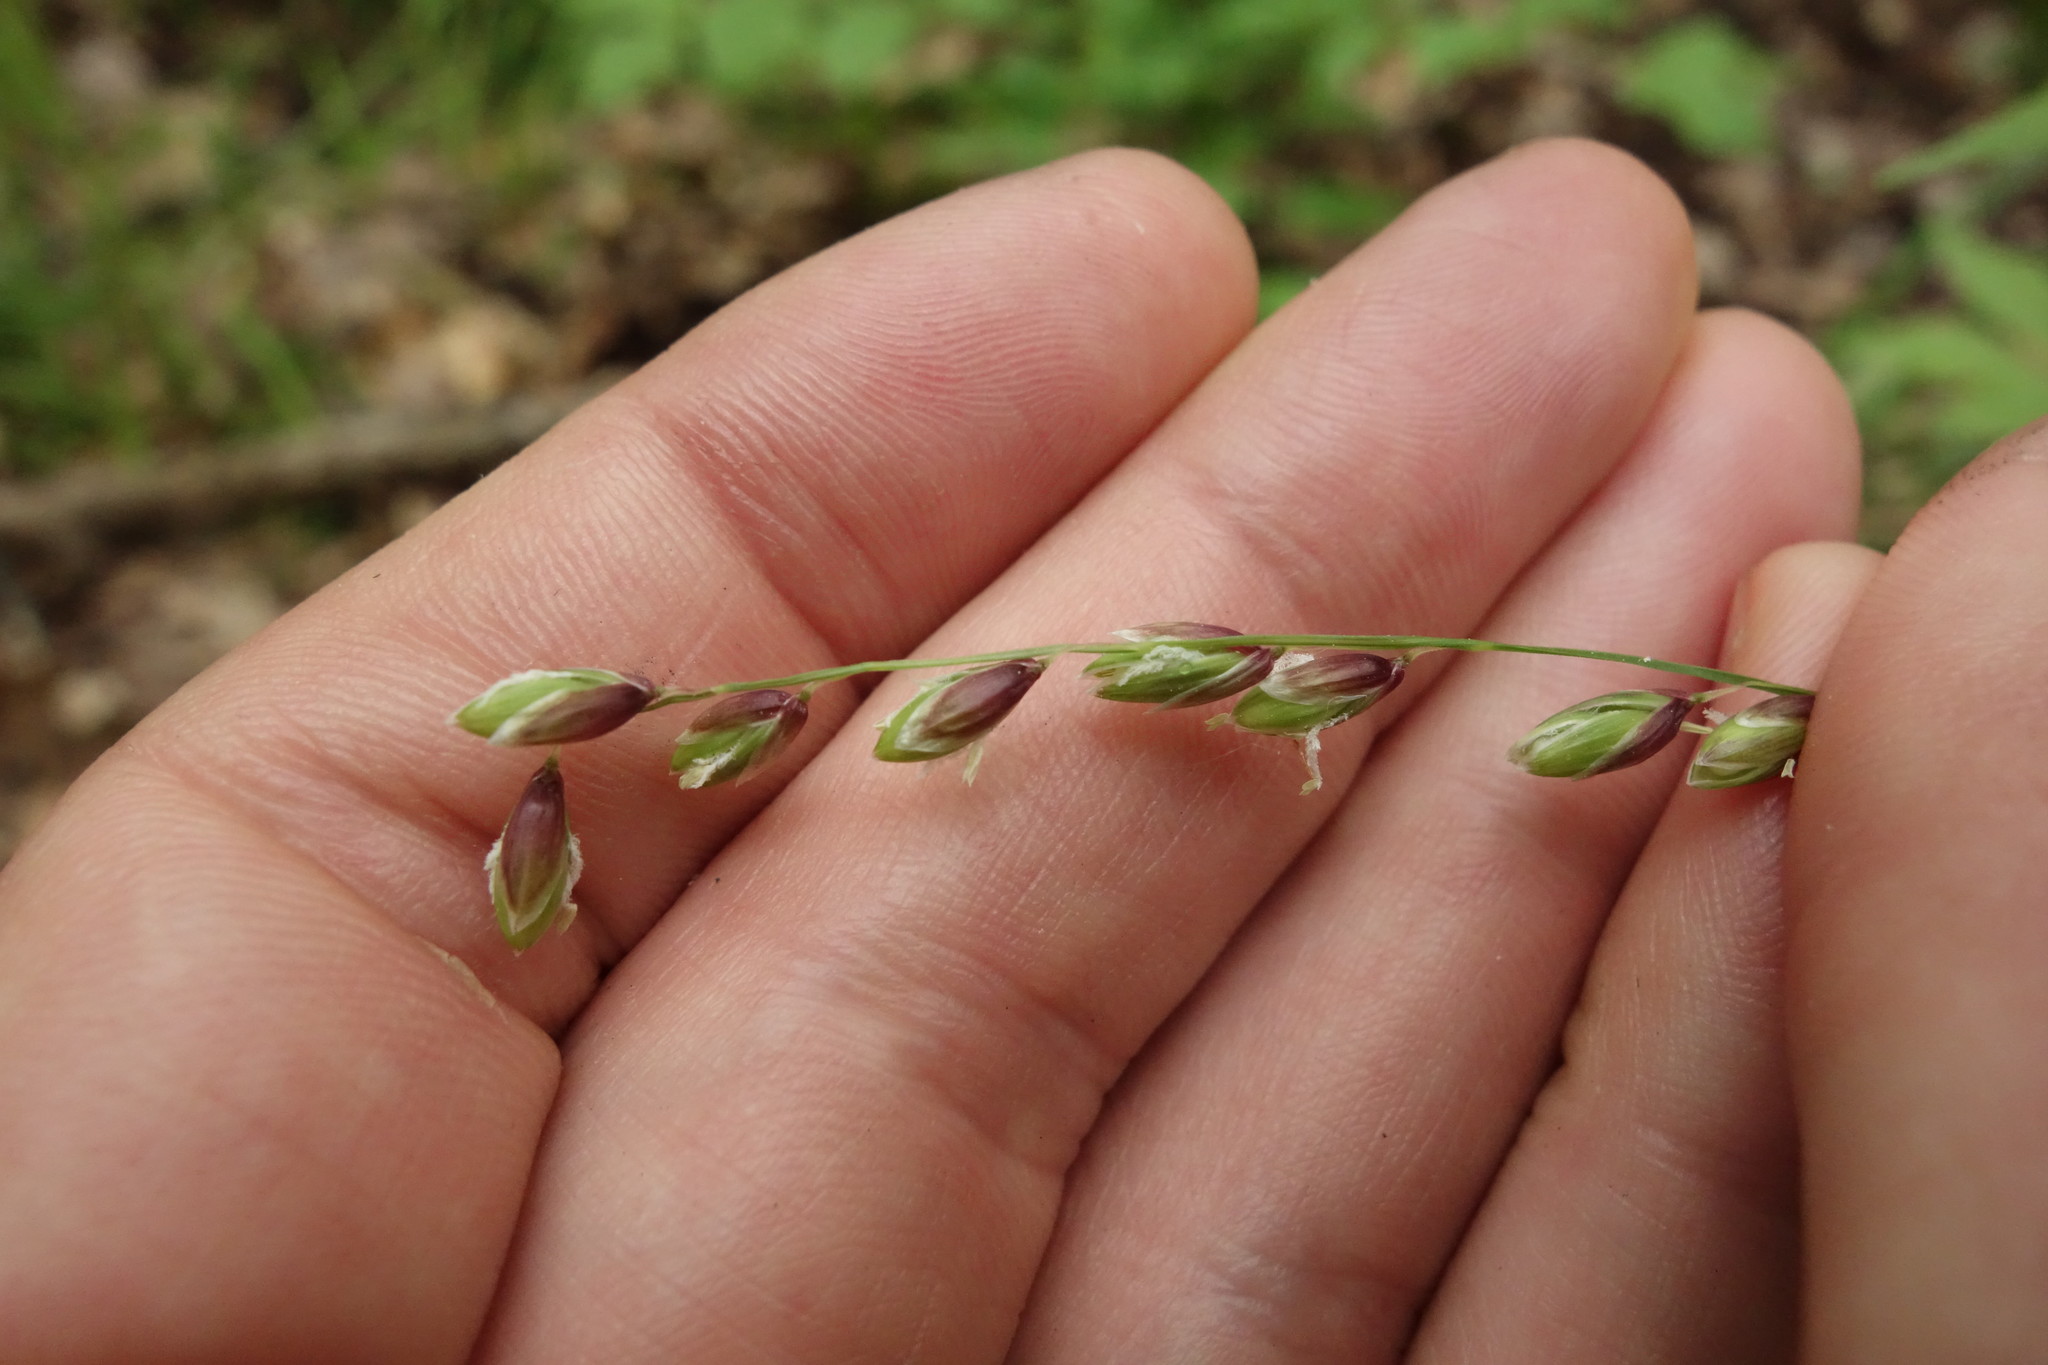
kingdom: Plantae
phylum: Tracheophyta
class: Liliopsida
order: Poales
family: Poaceae
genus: Melica
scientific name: Melica nutans
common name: Mountain melick
